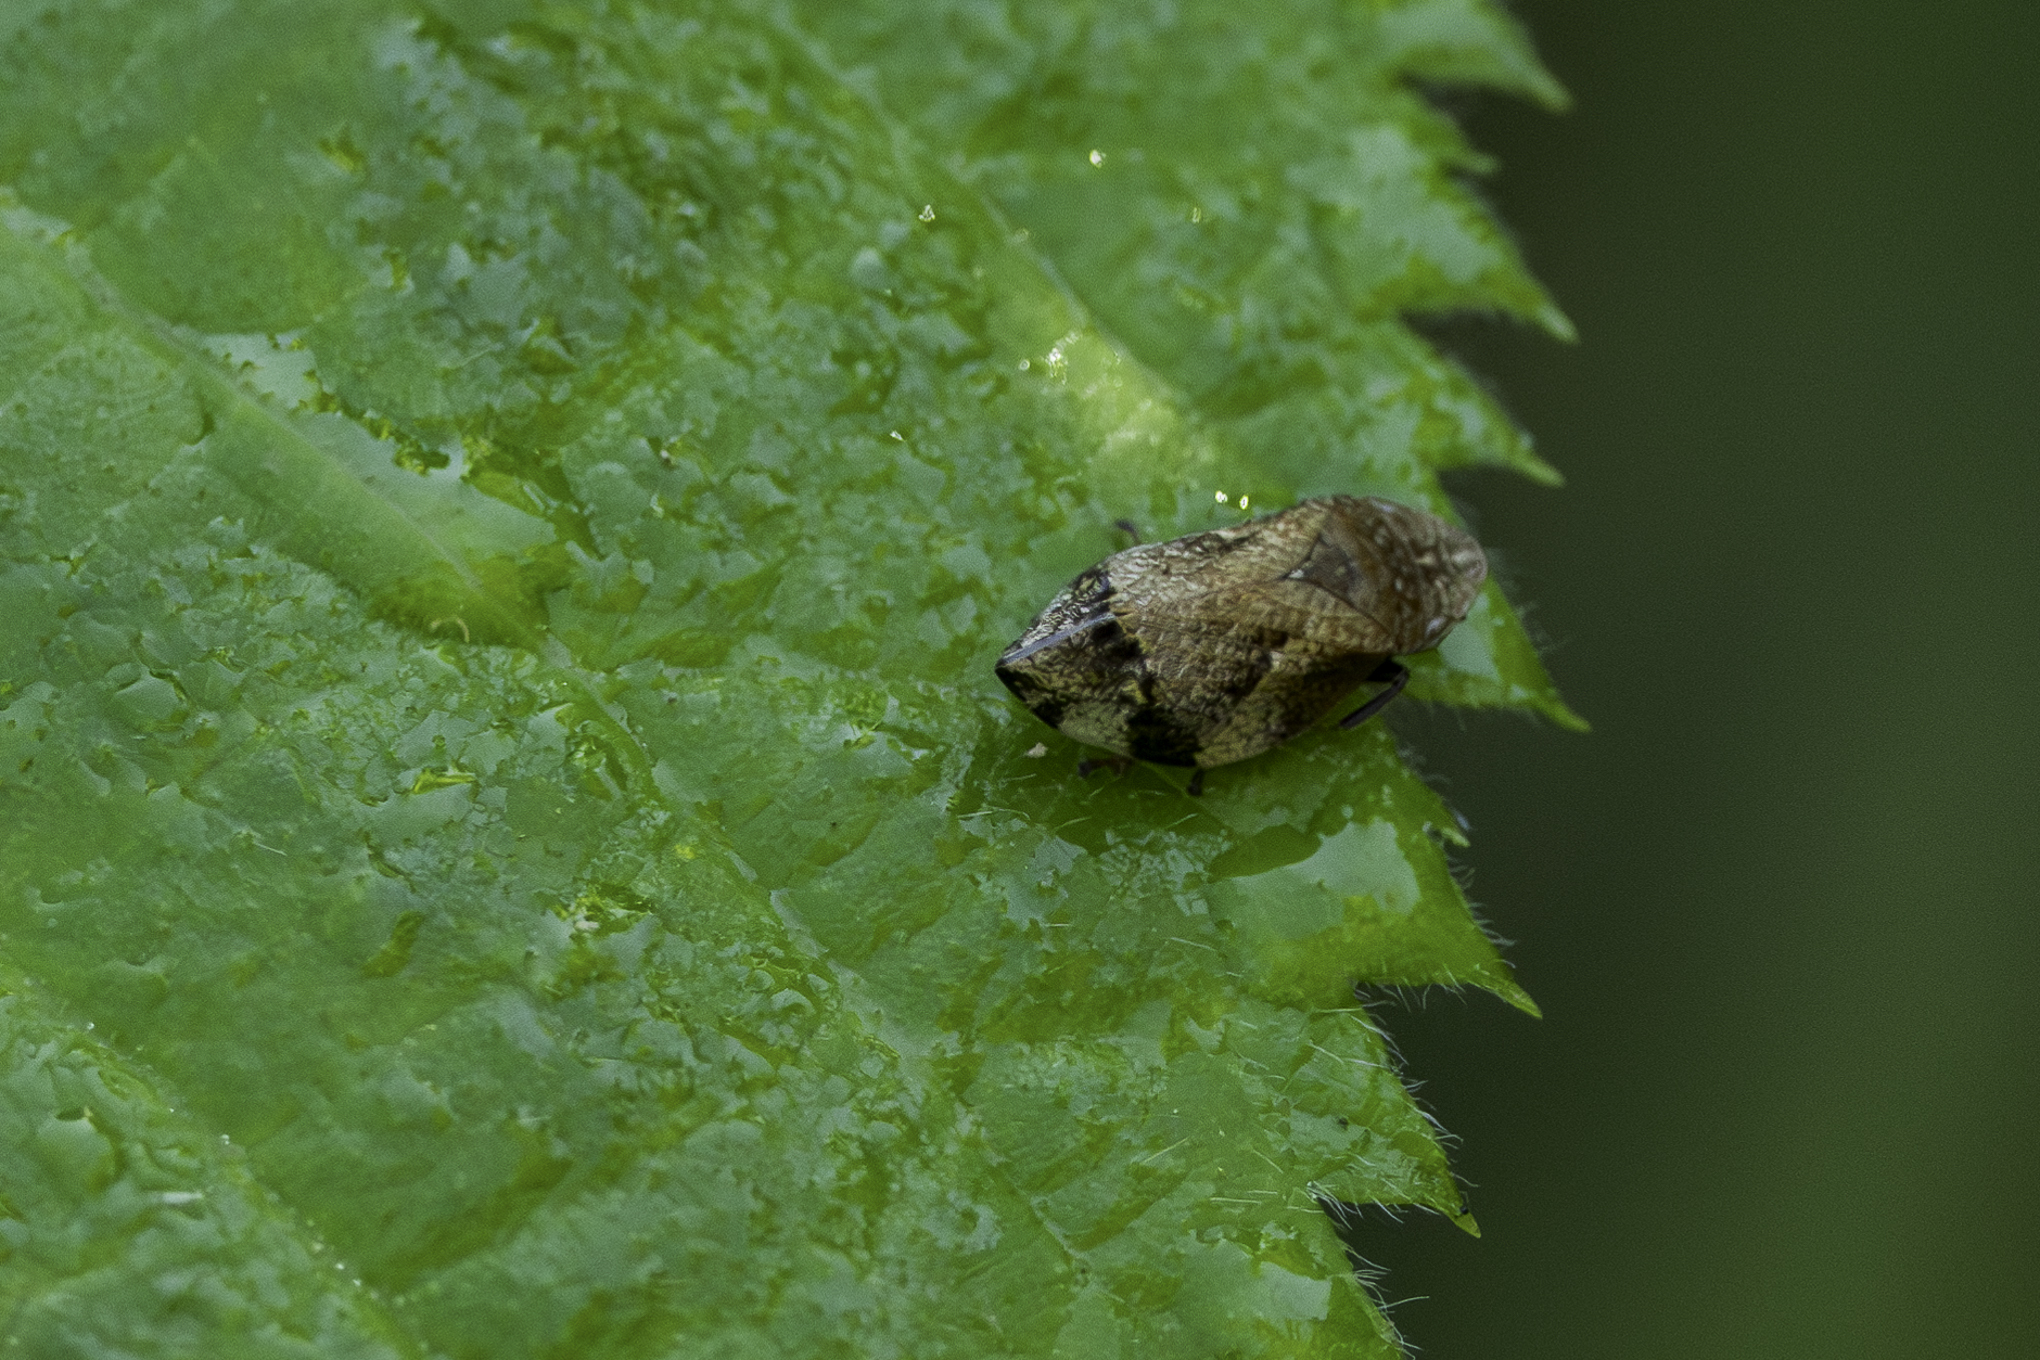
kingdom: Animalia
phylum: Arthropoda
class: Insecta
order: Hemiptera
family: Aphrophoridae
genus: Lepyronia
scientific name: Lepyronia quadrangularis
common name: Diamond-backed spittlebug
